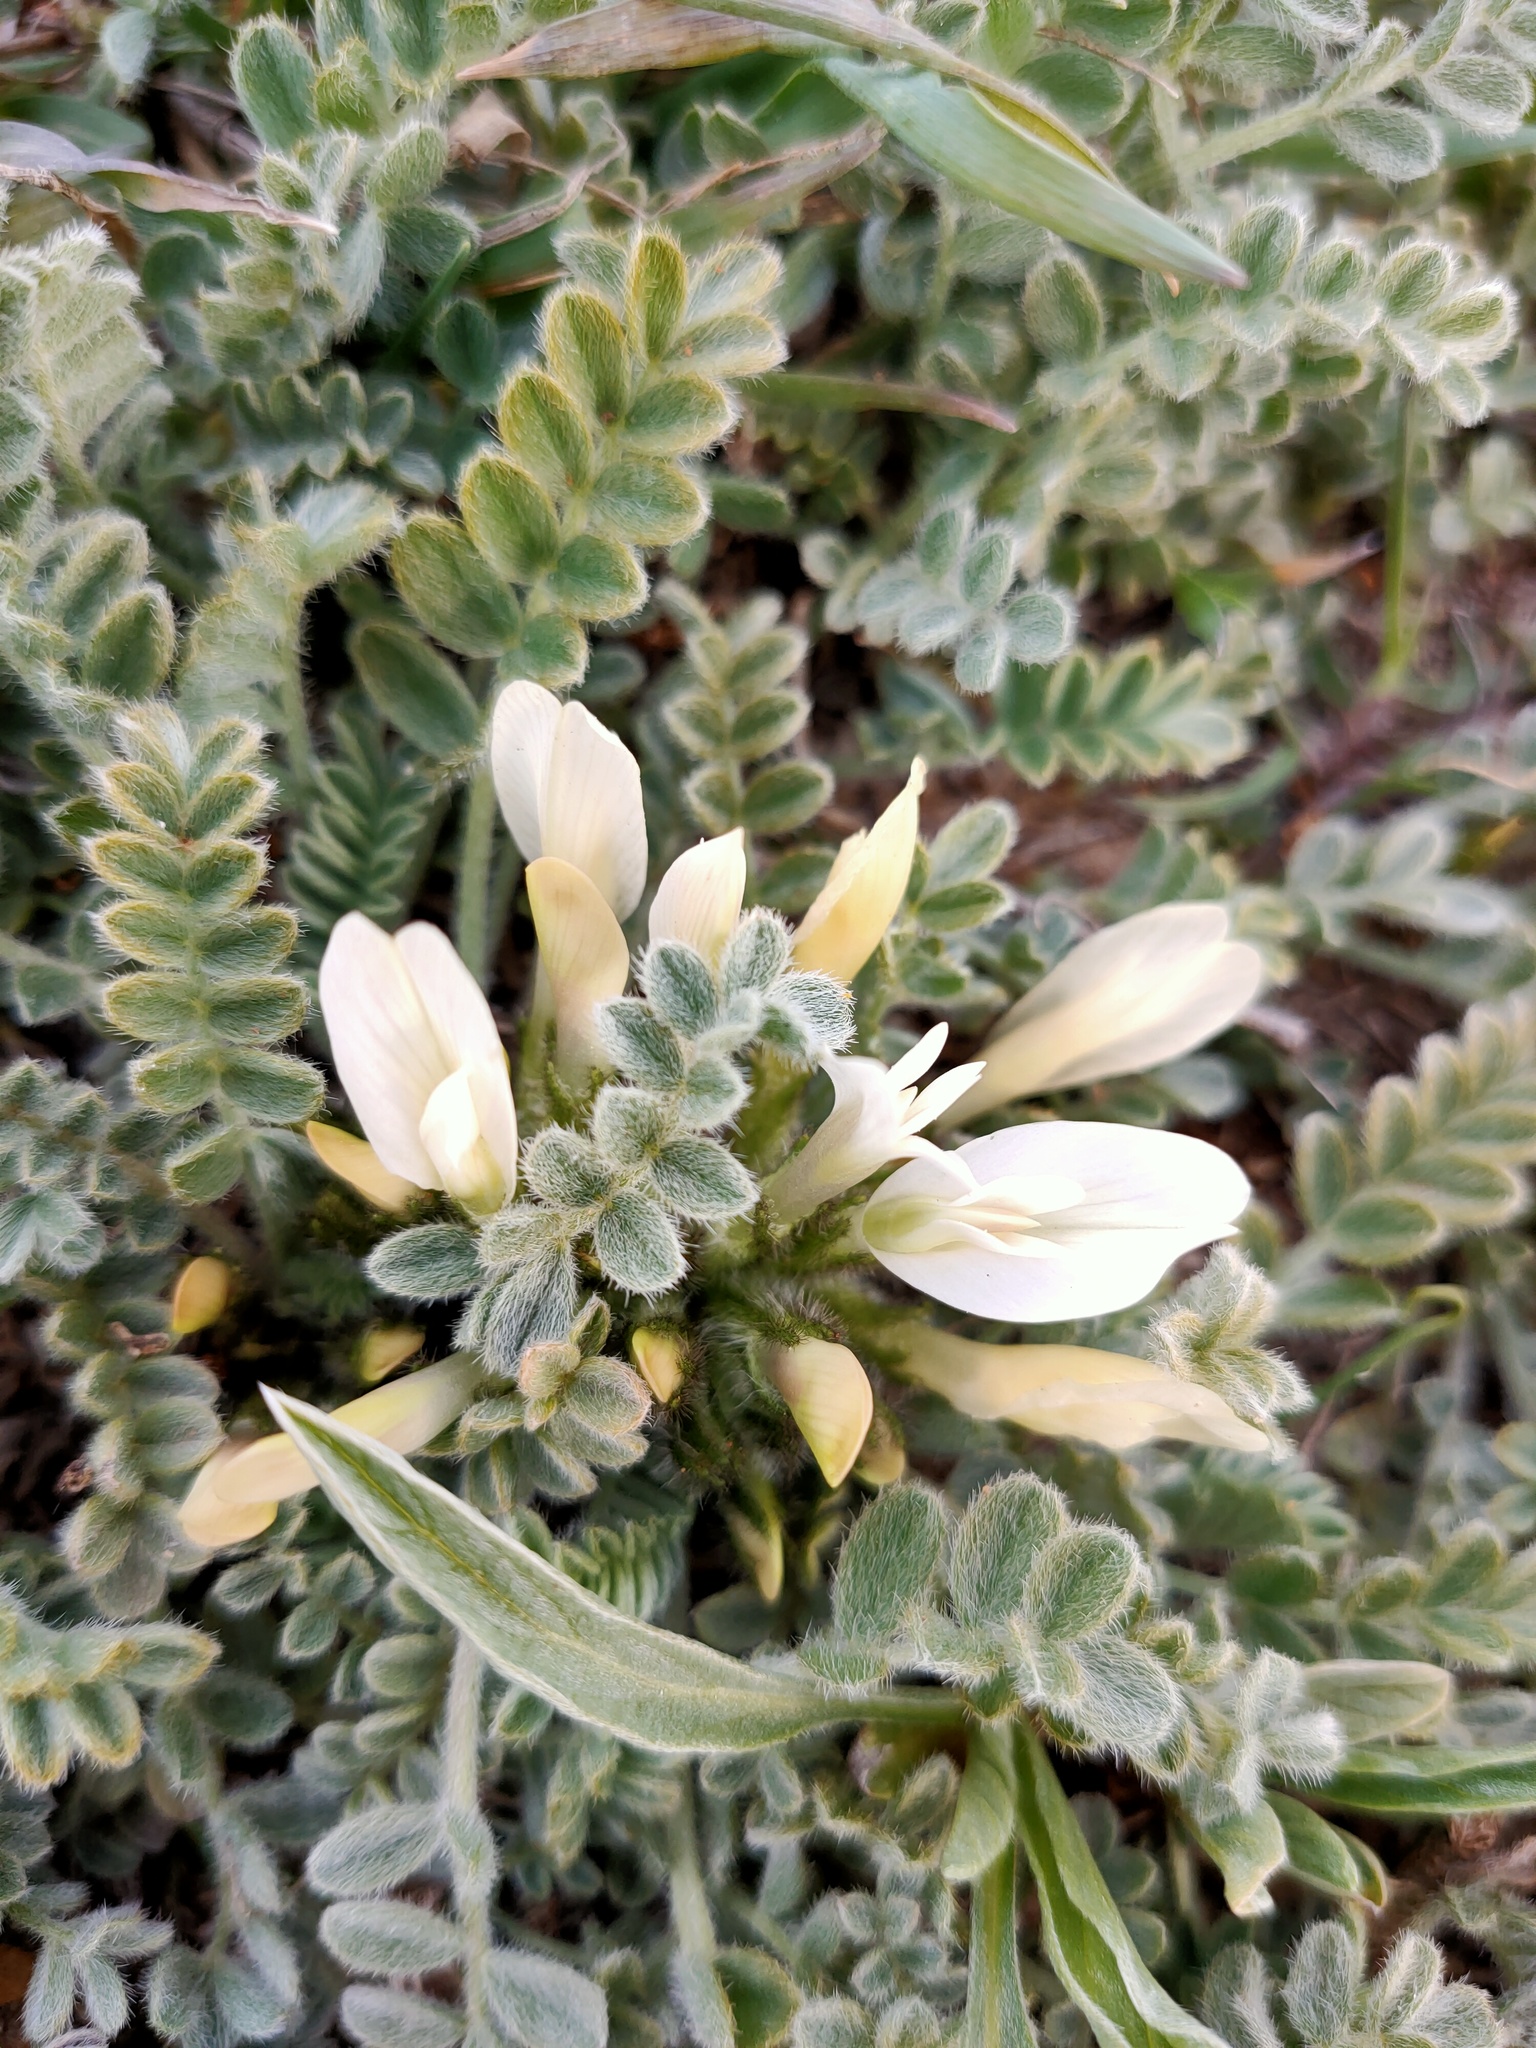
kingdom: Plantae
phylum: Tracheophyta
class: Magnoliopsida
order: Fabales
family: Fabaceae
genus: Astragalus
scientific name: Astragalus rupifragus
